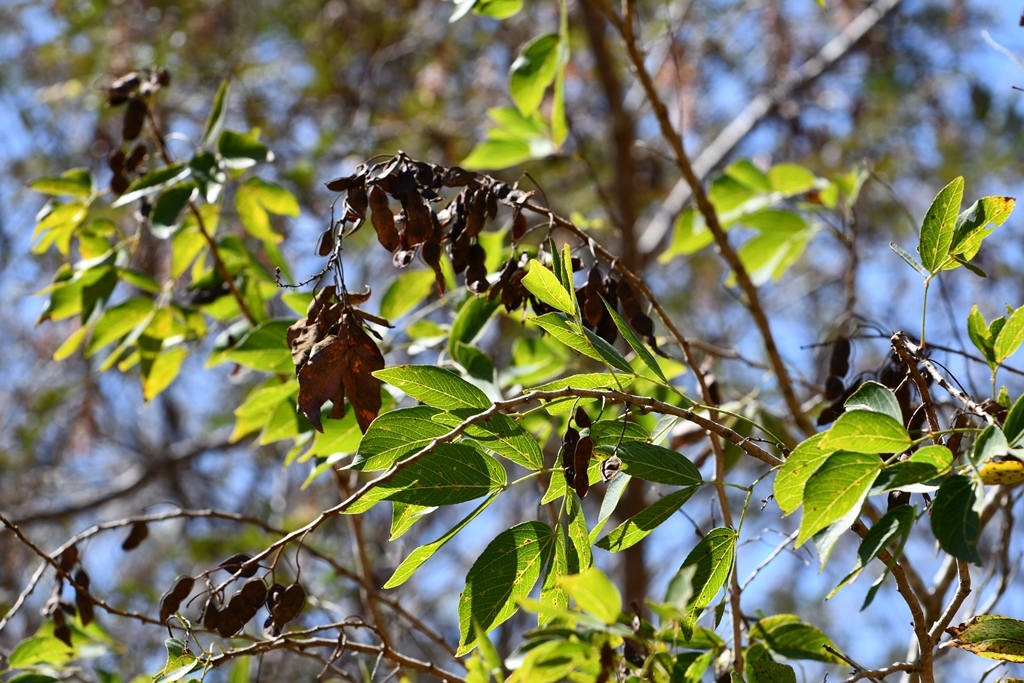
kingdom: Plantae
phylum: Tracheophyta
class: Magnoliopsida
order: Fabales
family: Fabaceae
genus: Mimosa
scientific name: Mimosa lactiflua
